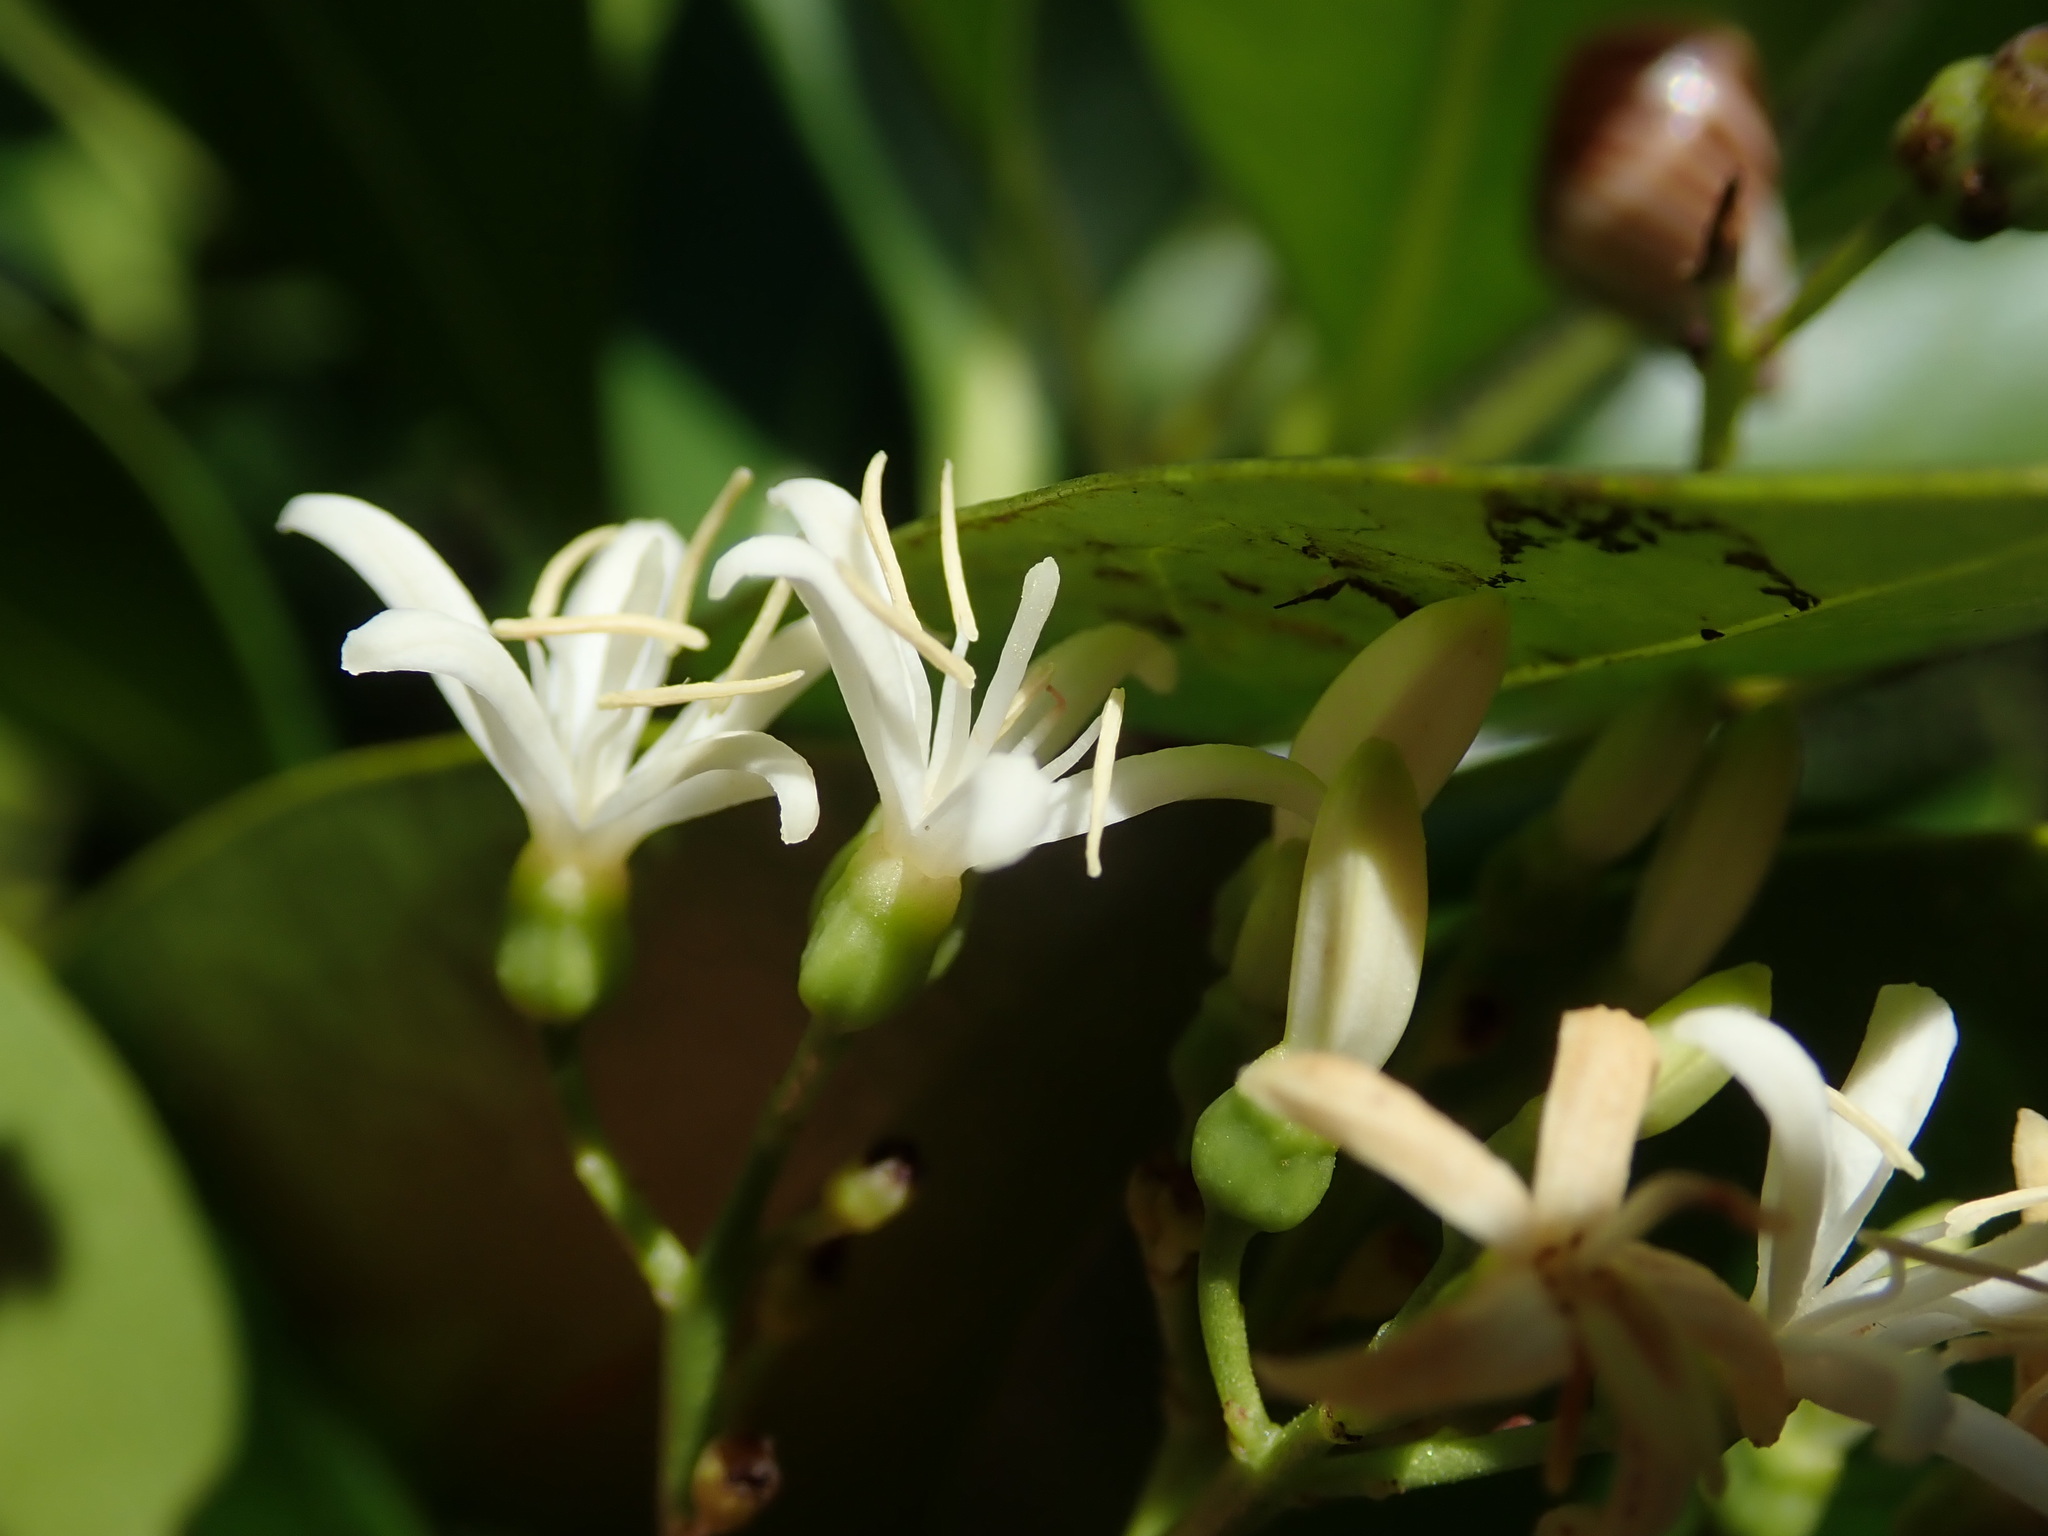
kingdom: Plantae
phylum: Tracheophyta
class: Magnoliopsida
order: Gentianales
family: Rubiaceae
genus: Erithalis
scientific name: Erithalis fruticosa
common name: Candlewood
